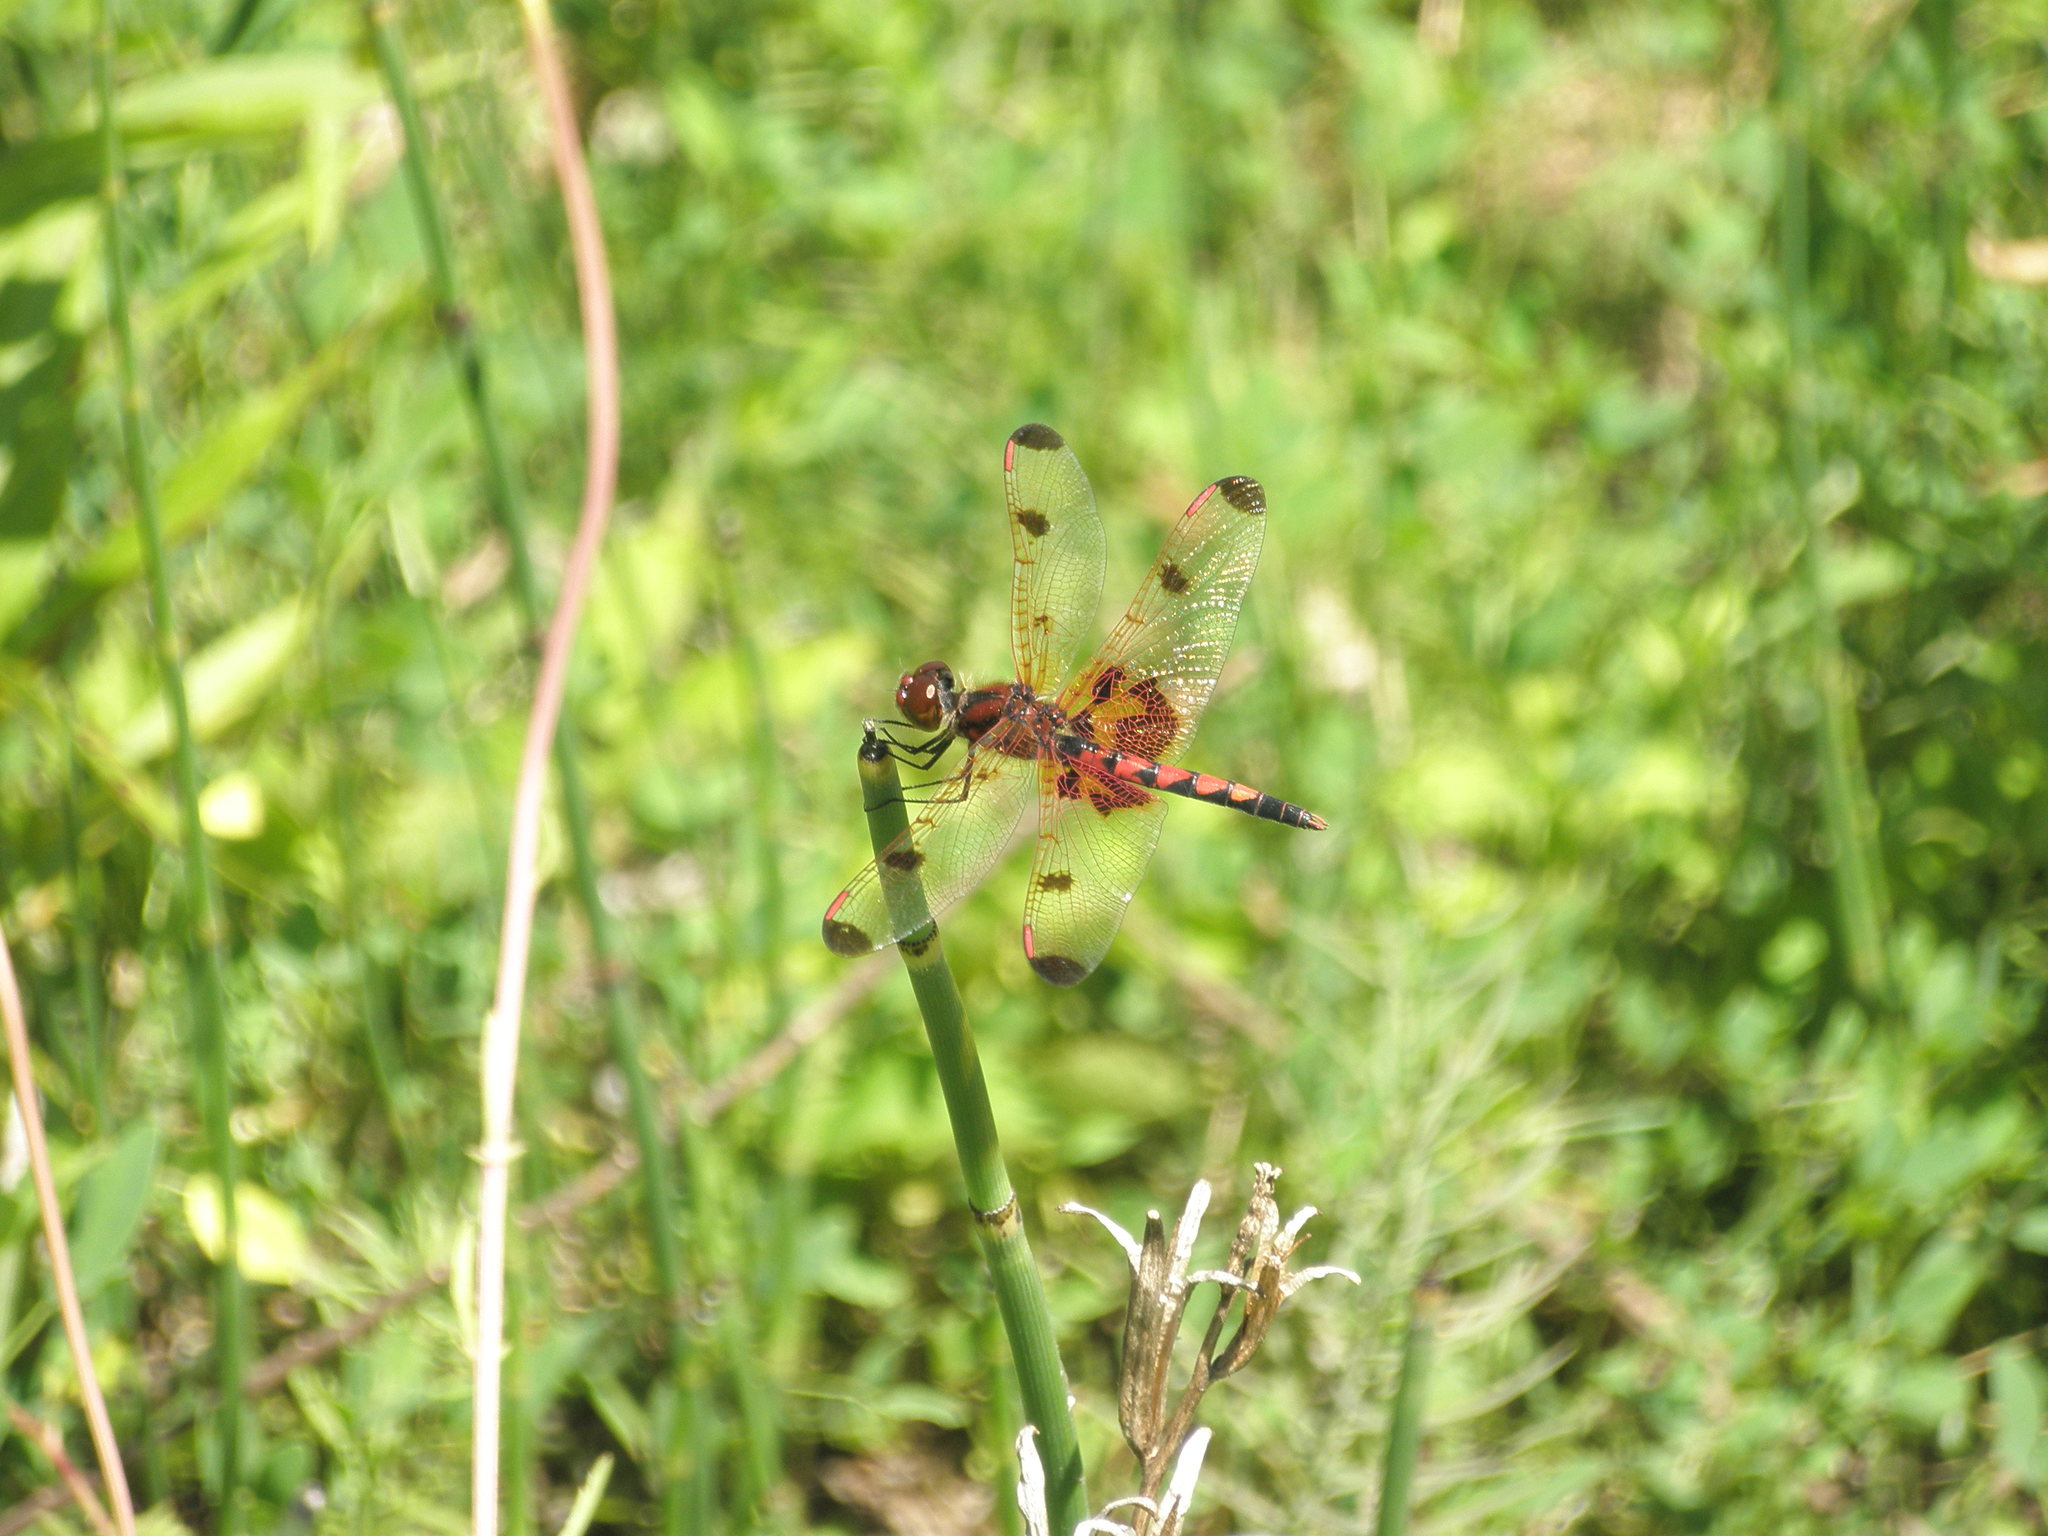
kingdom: Animalia
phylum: Arthropoda
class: Insecta
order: Odonata
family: Libellulidae
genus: Celithemis
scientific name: Celithemis elisa
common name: Calico pennant
